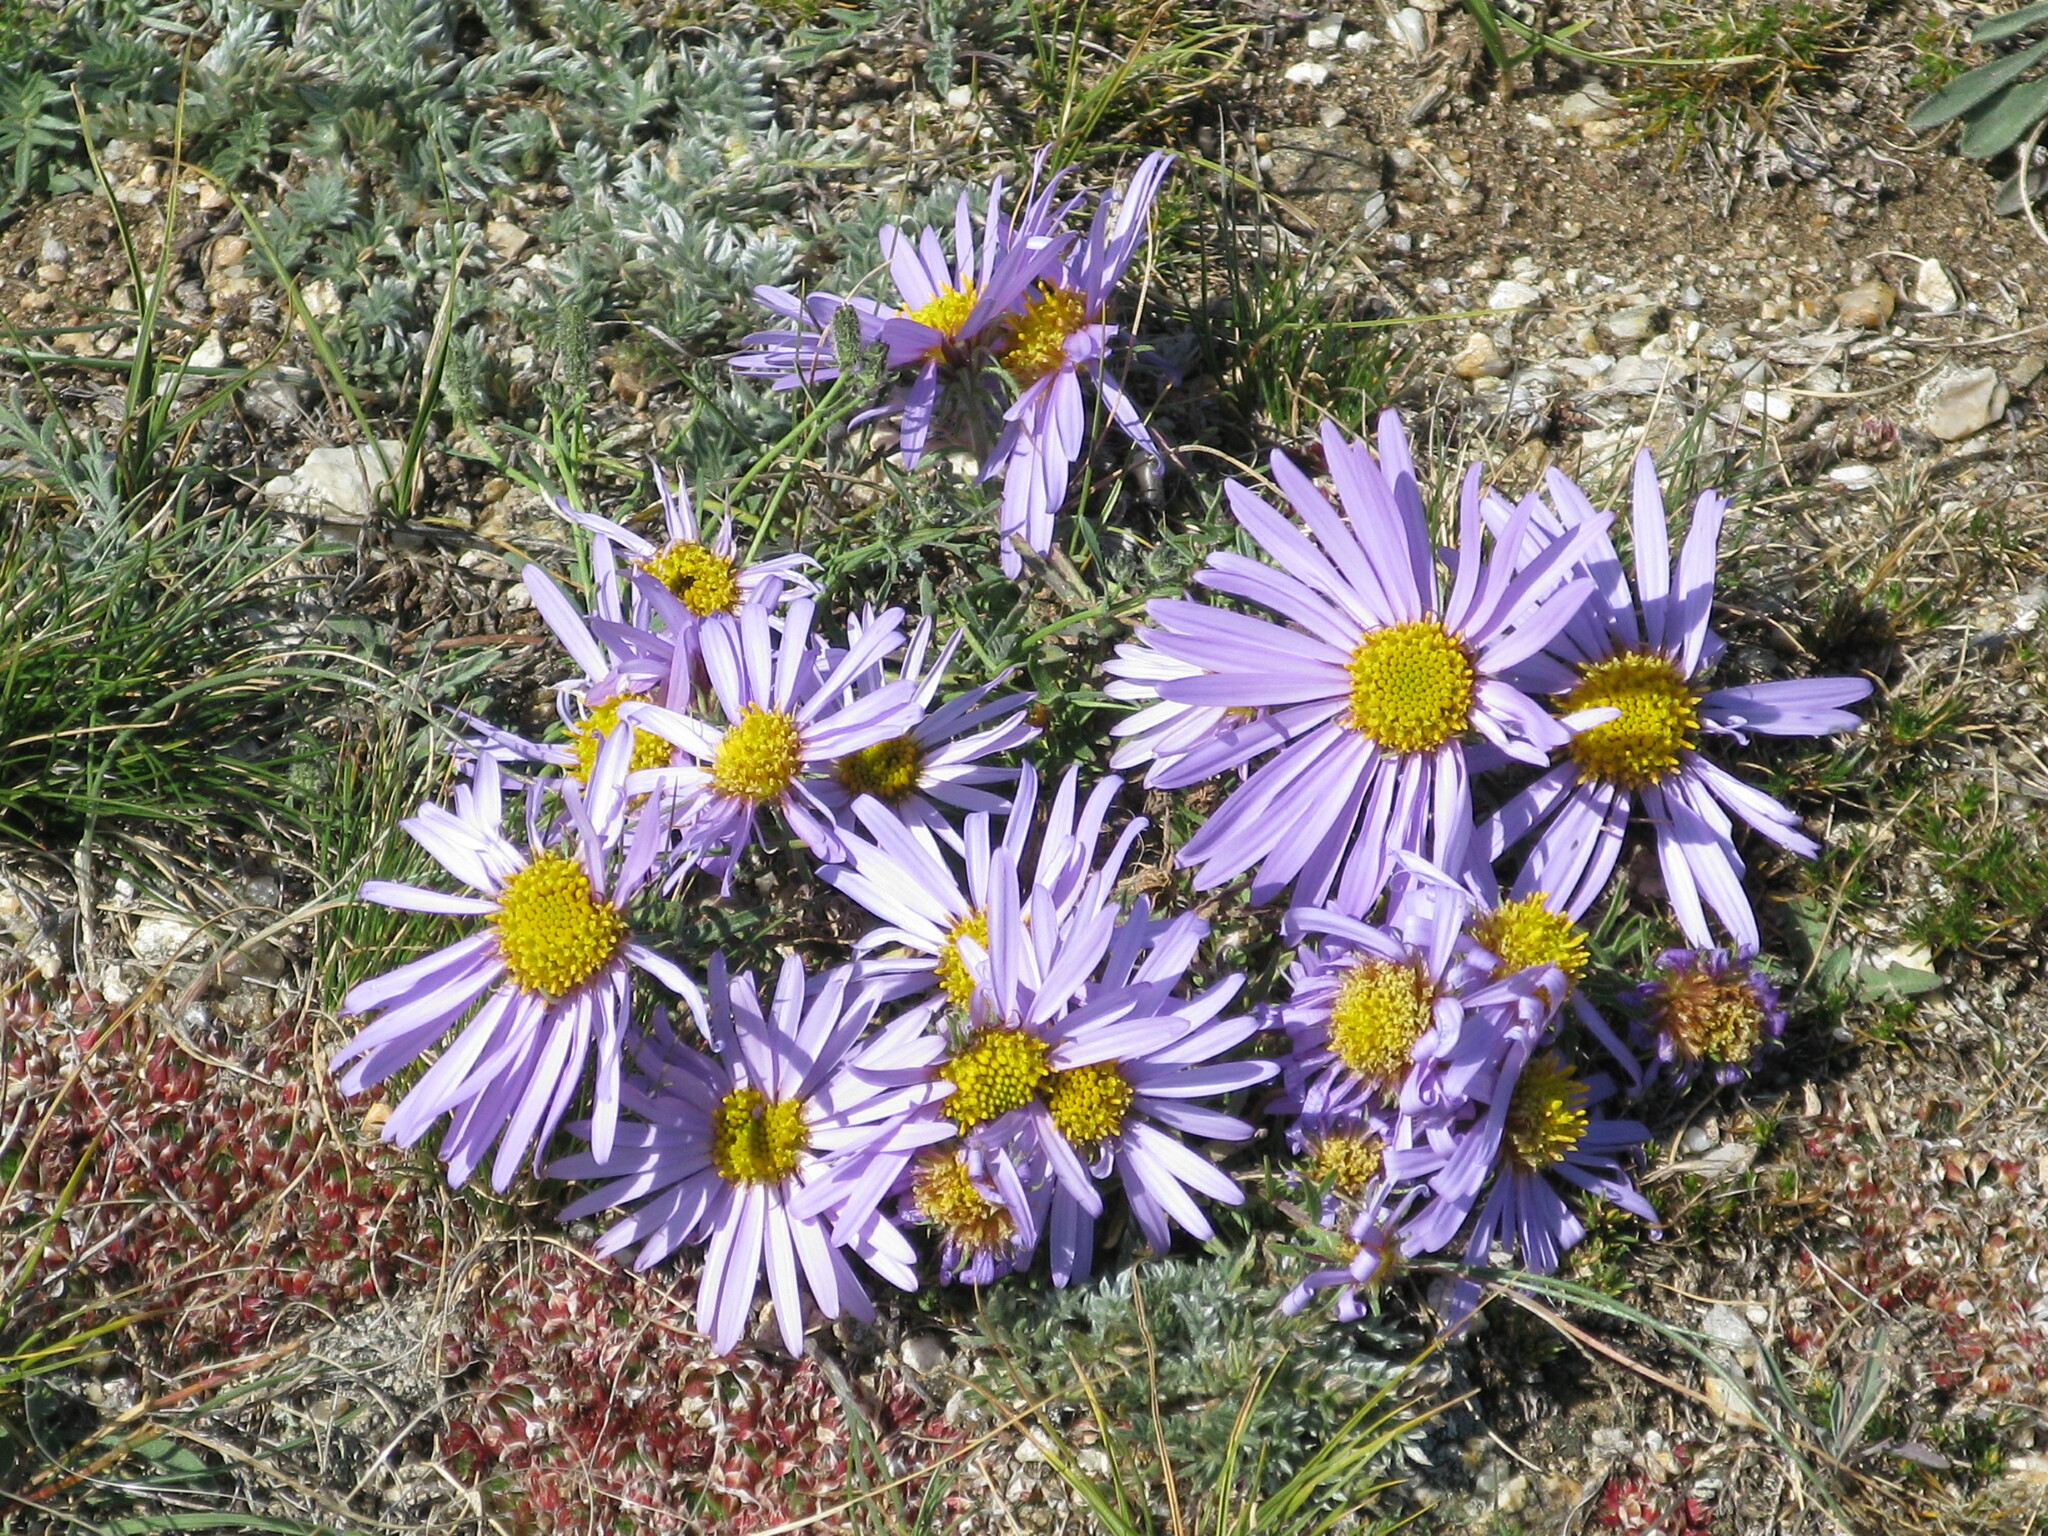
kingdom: Plantae
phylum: Tracheophyta
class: Magnoliopsida
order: Asterales
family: Asteraceae
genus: Aster
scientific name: Aster alpinus
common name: Alpine aster
